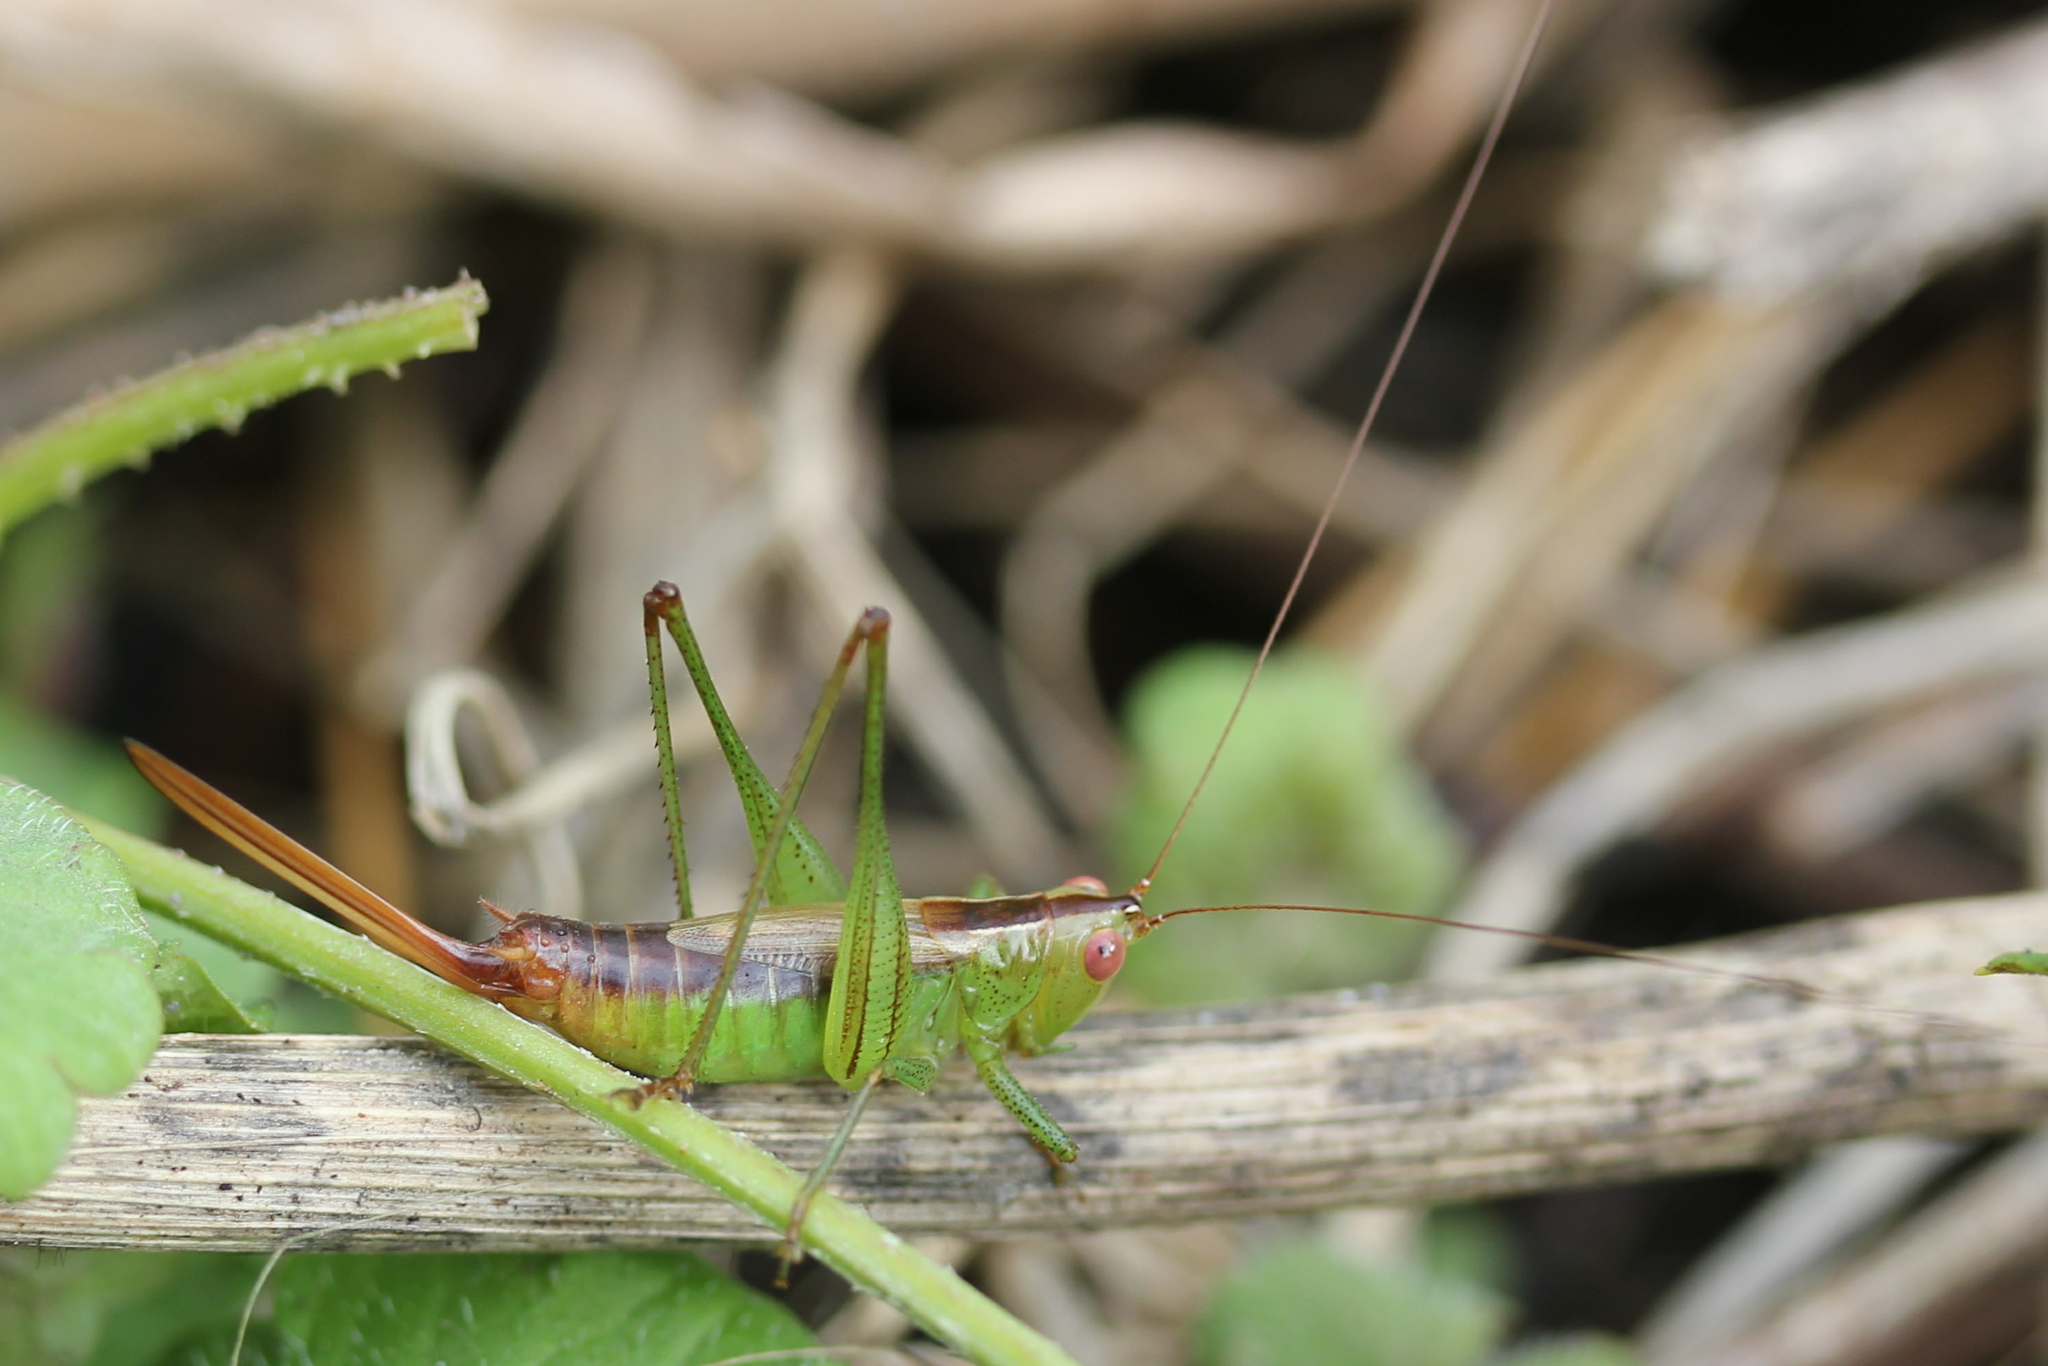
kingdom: Animalia
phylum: Arthropoda
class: Insecta
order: Orthoptera
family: Tettigoniidae
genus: Conocephalus
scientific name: Conocephalus brevipennis
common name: Short-winged meadow katydid
